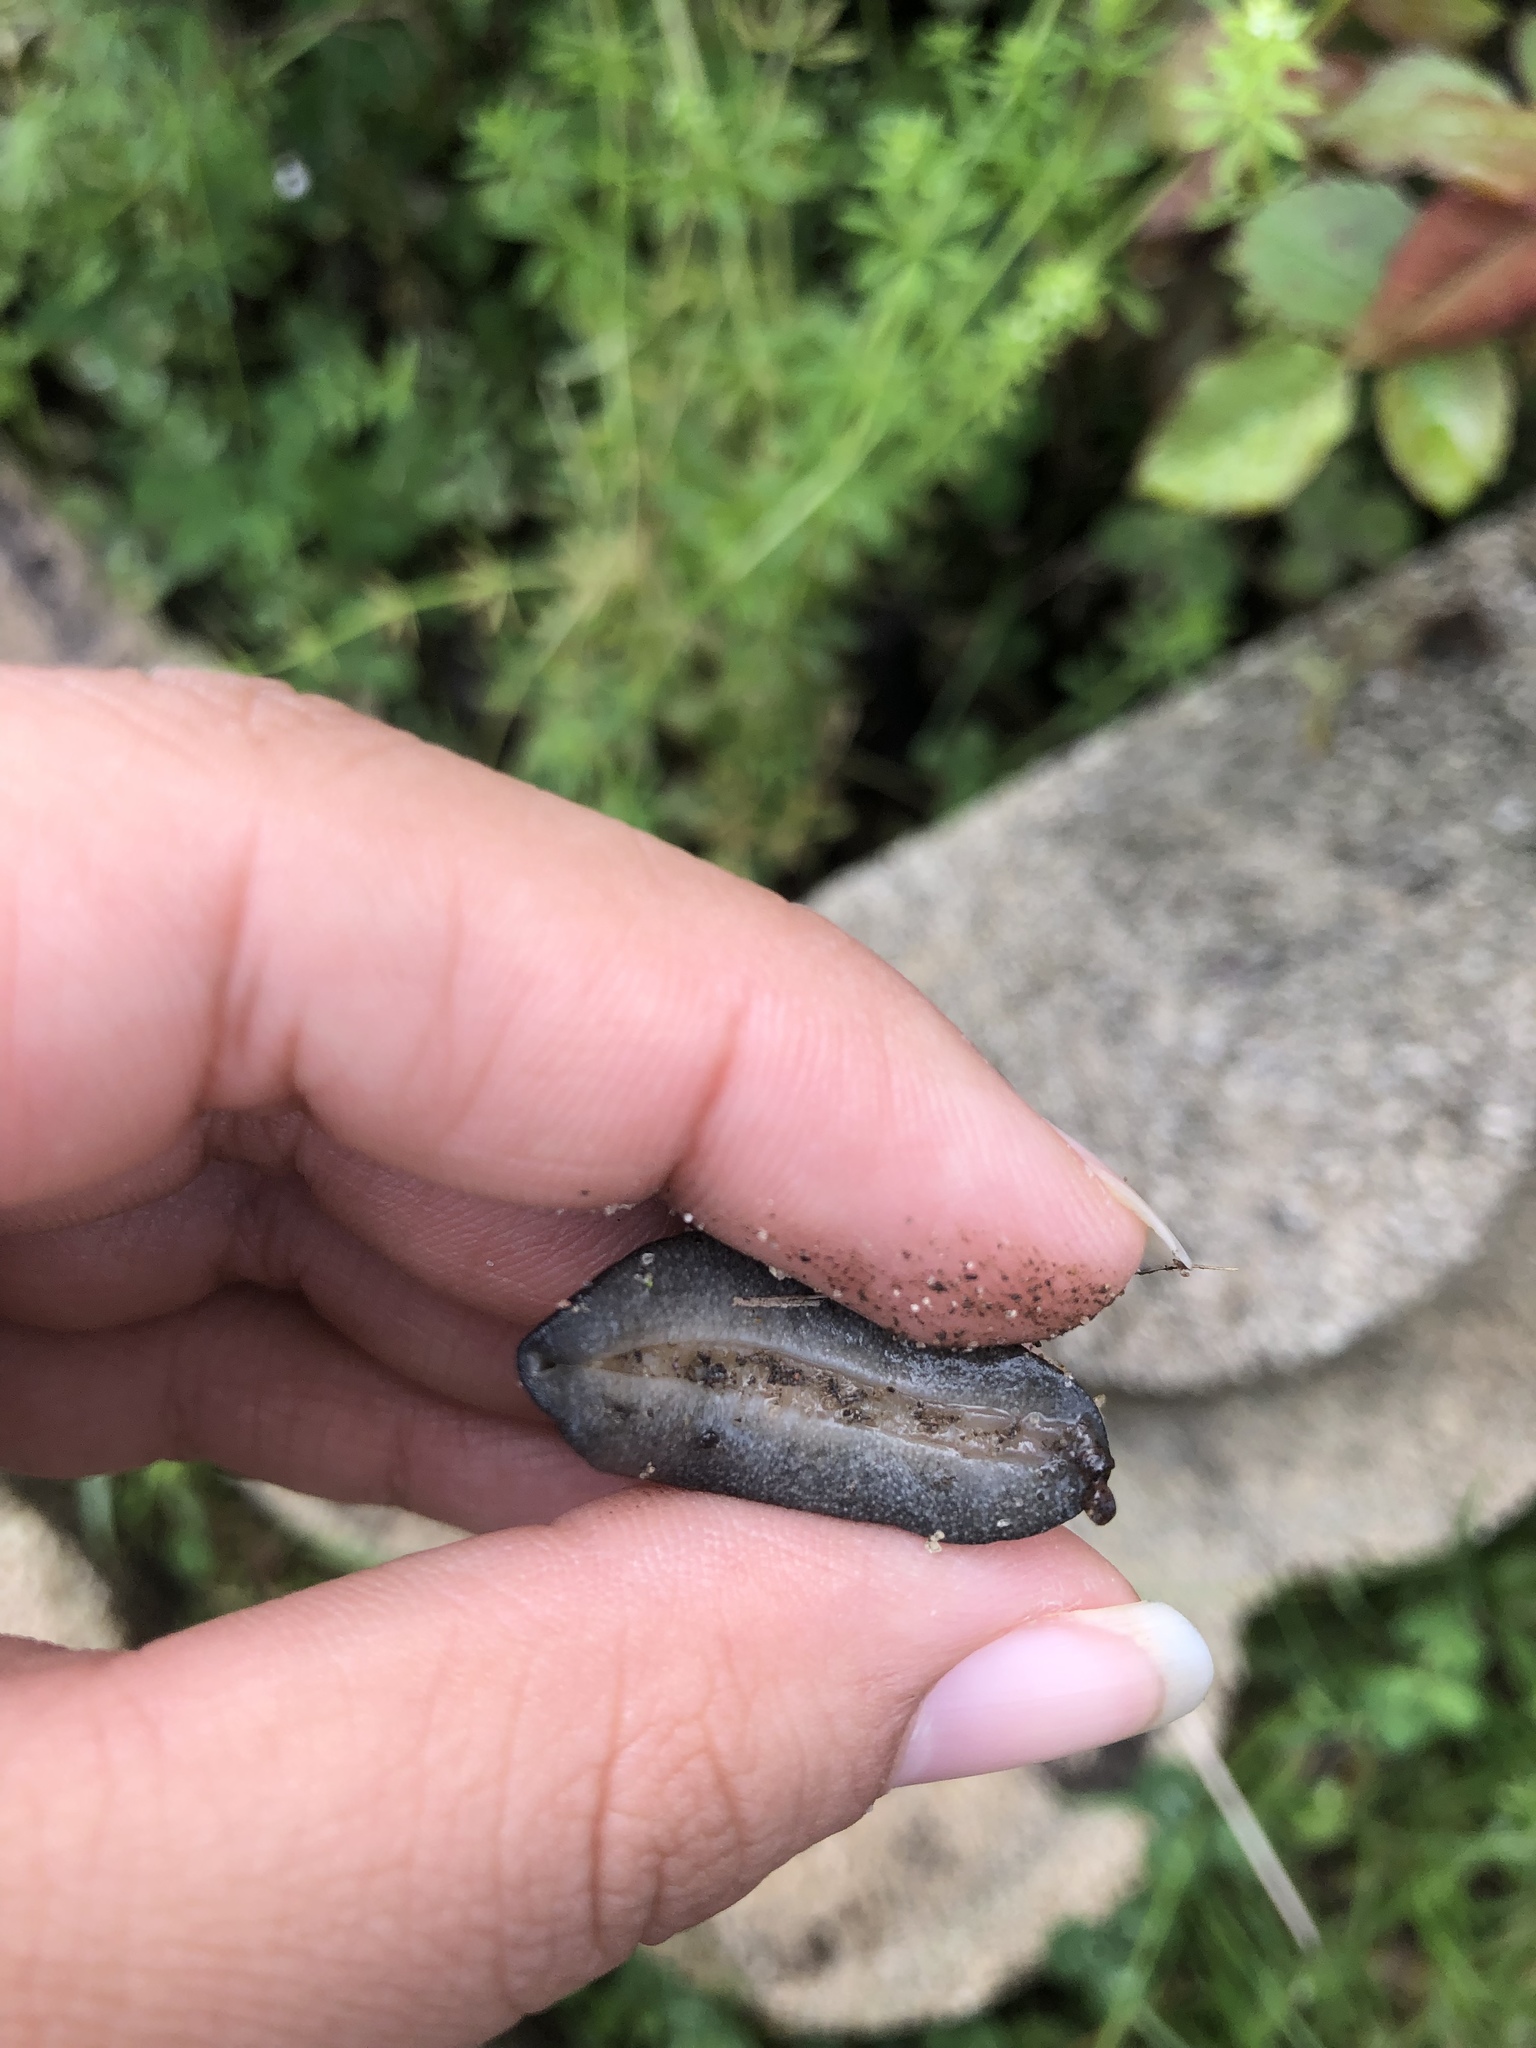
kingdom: Animalia
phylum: Mollusca
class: Gastropoda
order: Systellommatophora
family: Veronicellidae
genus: Belocaulus
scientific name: Belocaulus angustipes
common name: Black velvet leatherleaf slug
